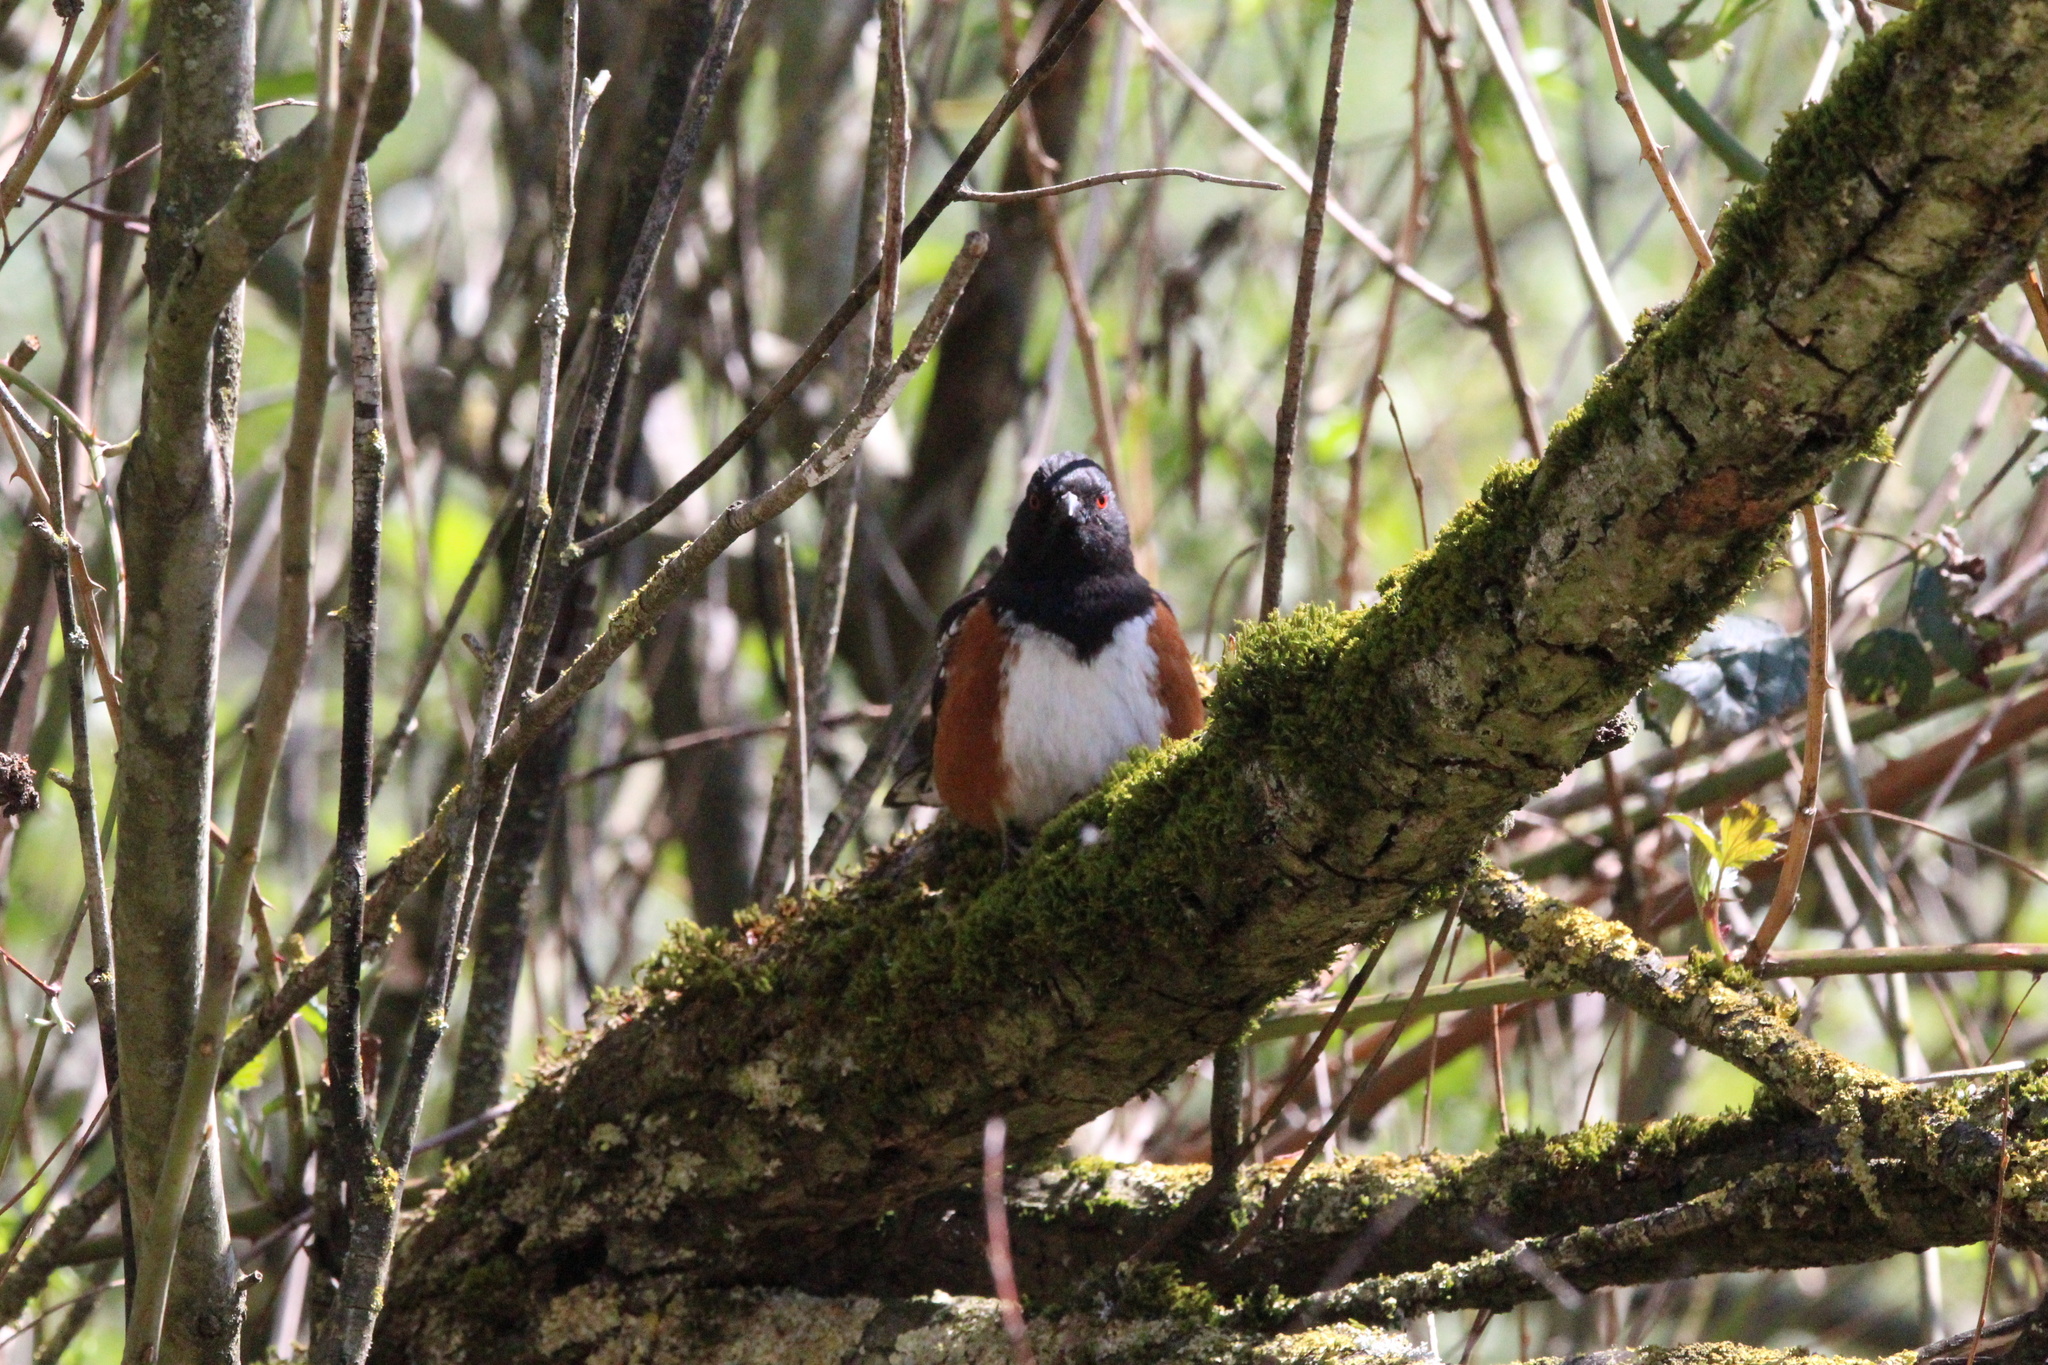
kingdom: Animalia
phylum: Chordata
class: Aves
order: Passeriformes
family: Passerellidae
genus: Pipilo
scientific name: Pipilo maculatus
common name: Spotted towhee
